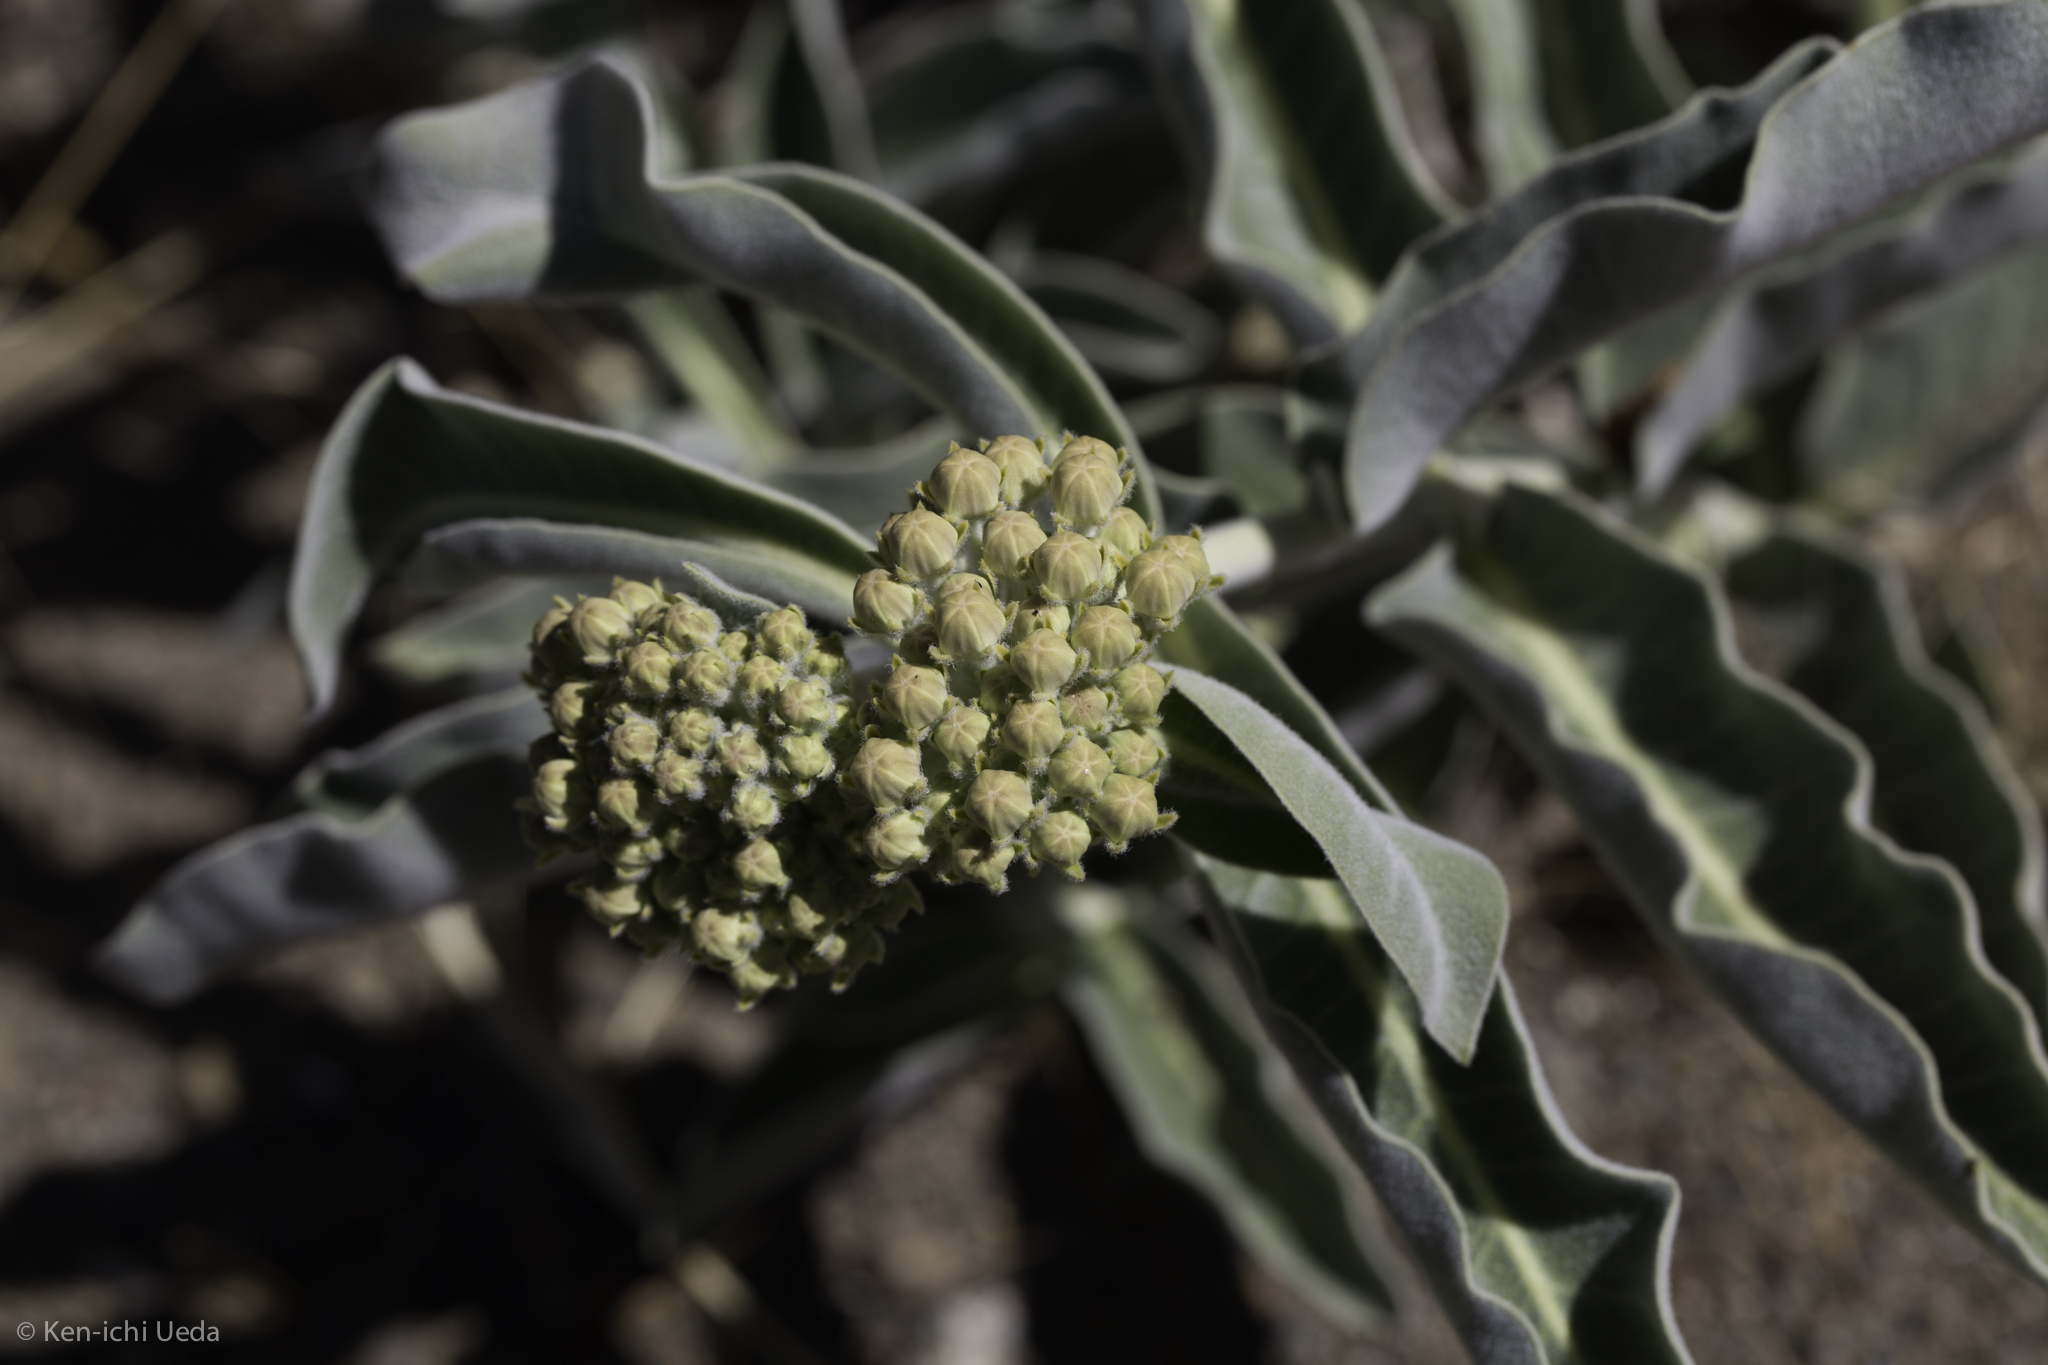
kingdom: Plantae
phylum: Tracheophyta
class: Magnoliopsida
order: Gentianales
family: Apocynaceae
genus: Asclepias
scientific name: Asclepias eriocarpa
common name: Indian milkweed
